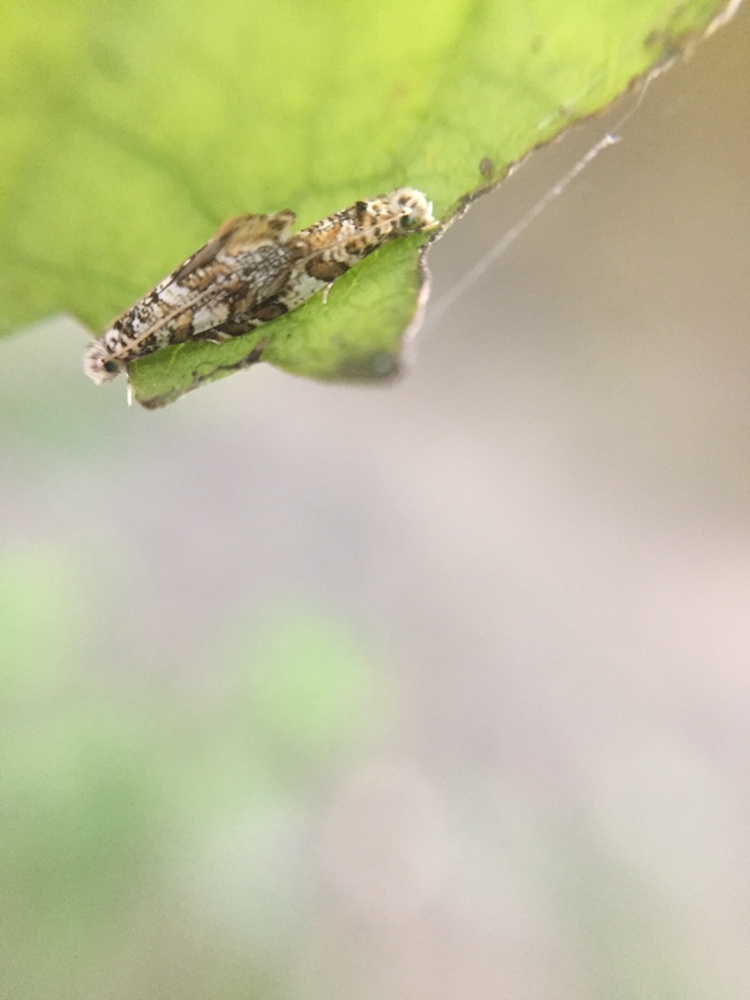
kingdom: Animalia
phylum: Arthropoda
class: Insecta
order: Lepidoptera
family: Tineidae
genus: Eschatotypa
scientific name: Eschatotypa derogatella
